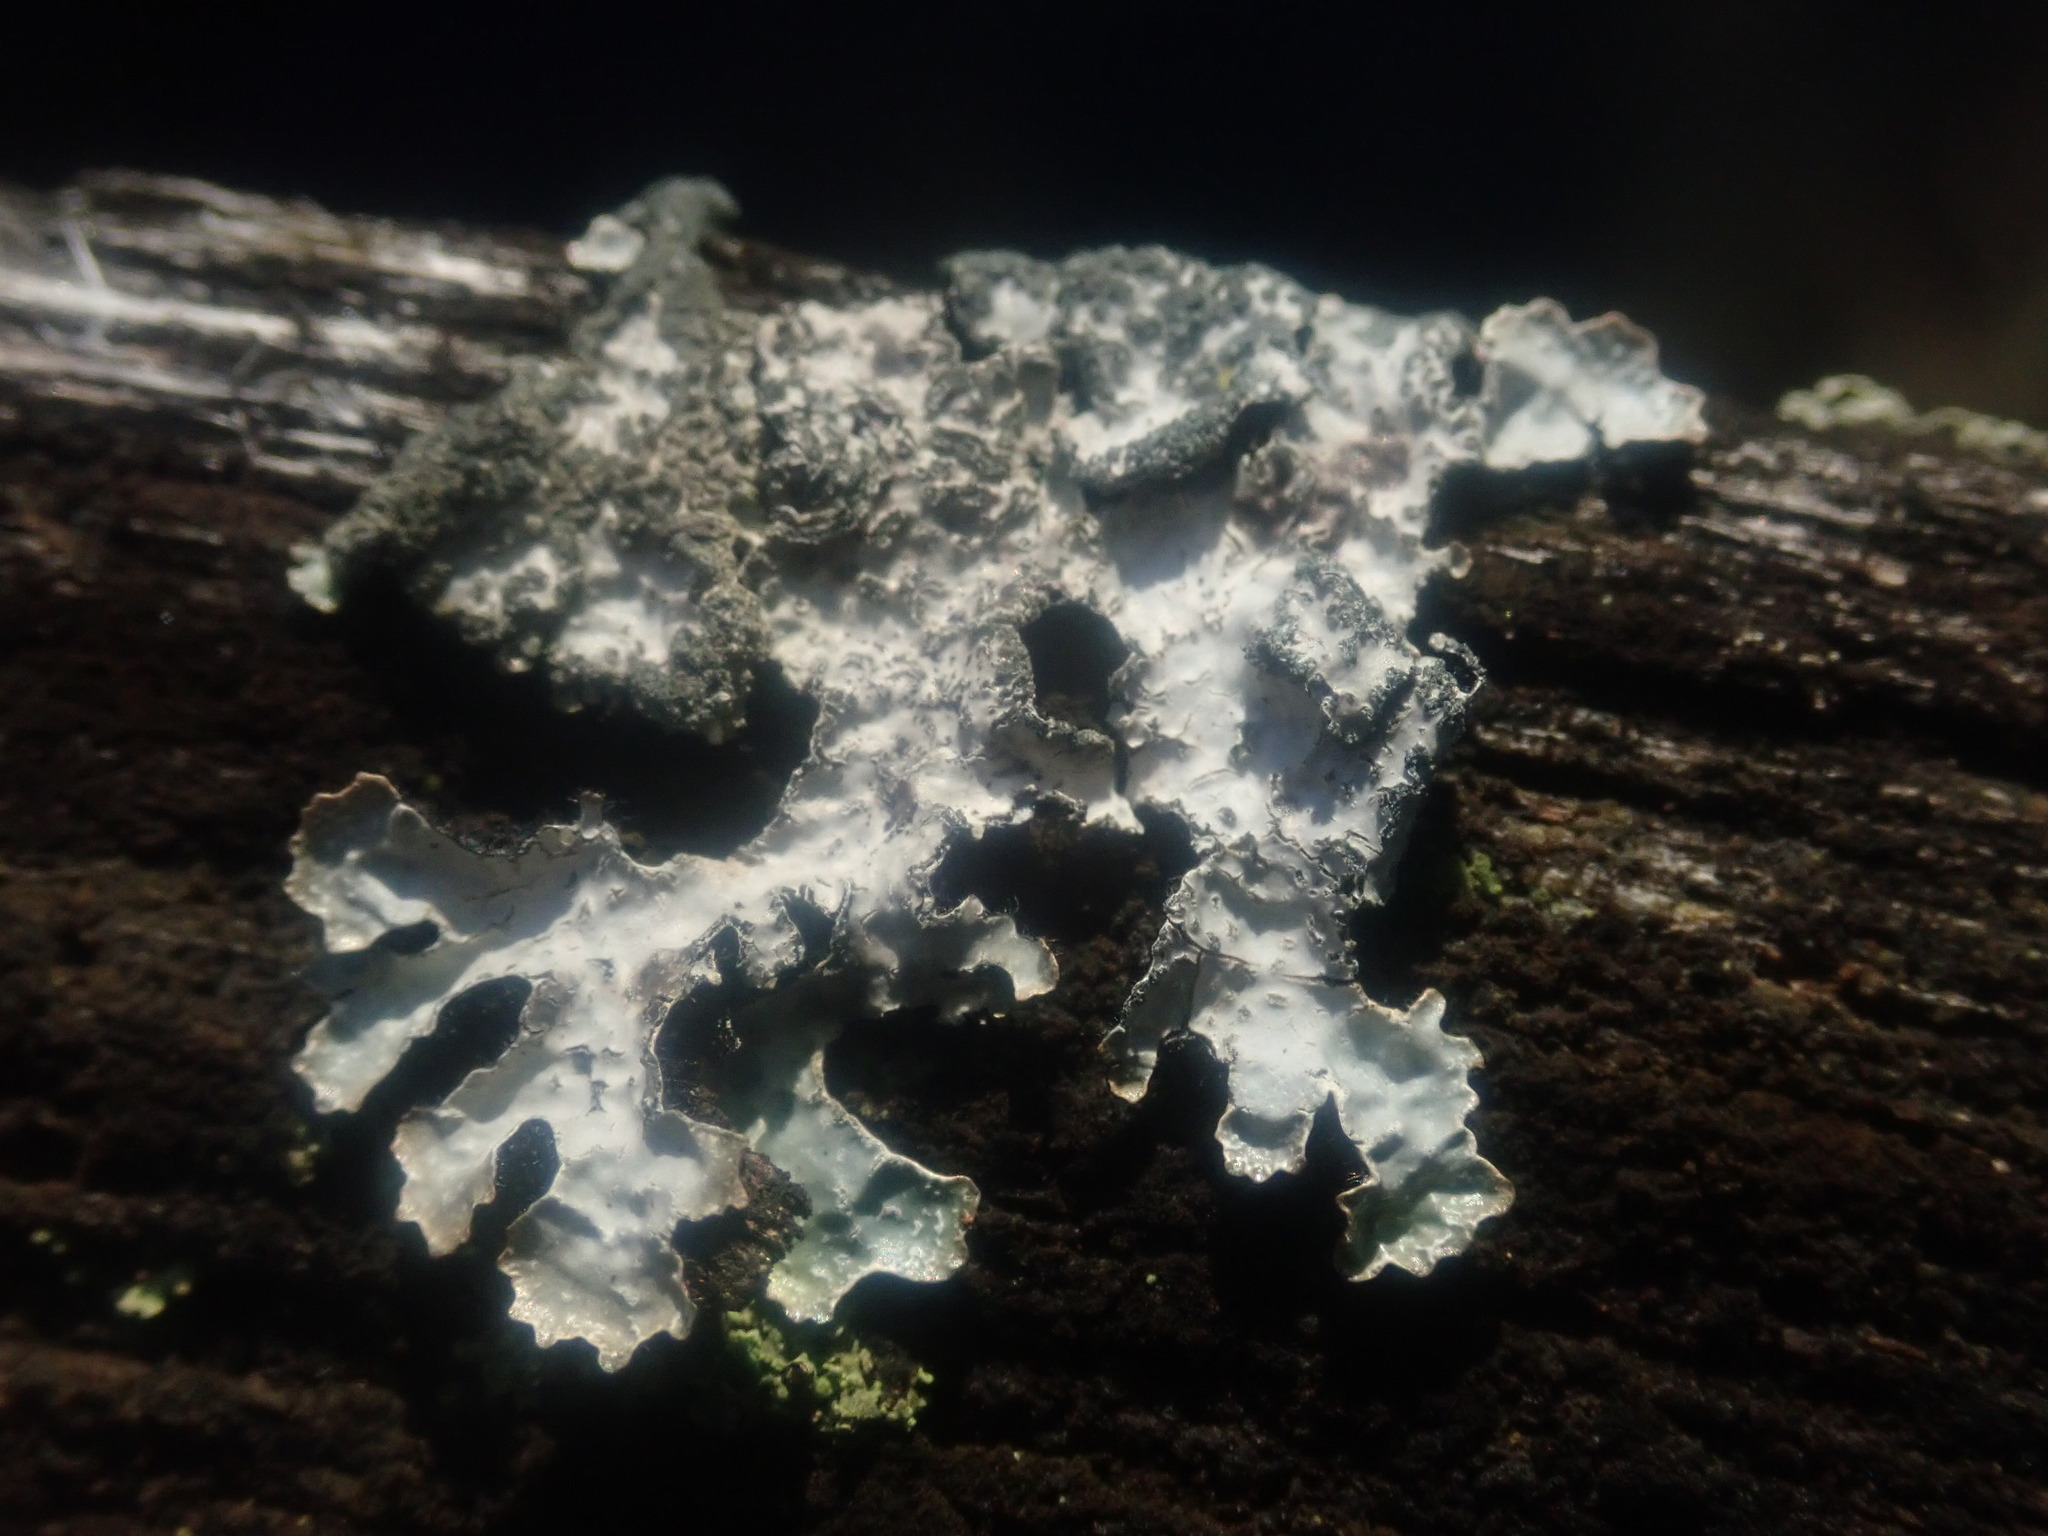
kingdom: Fungi
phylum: Ascomycota
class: Lecanoromycetes
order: Lecanorales
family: Parmeliaceae
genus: Parmelia
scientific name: Parmelia sulcata
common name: Netted shield lichen
